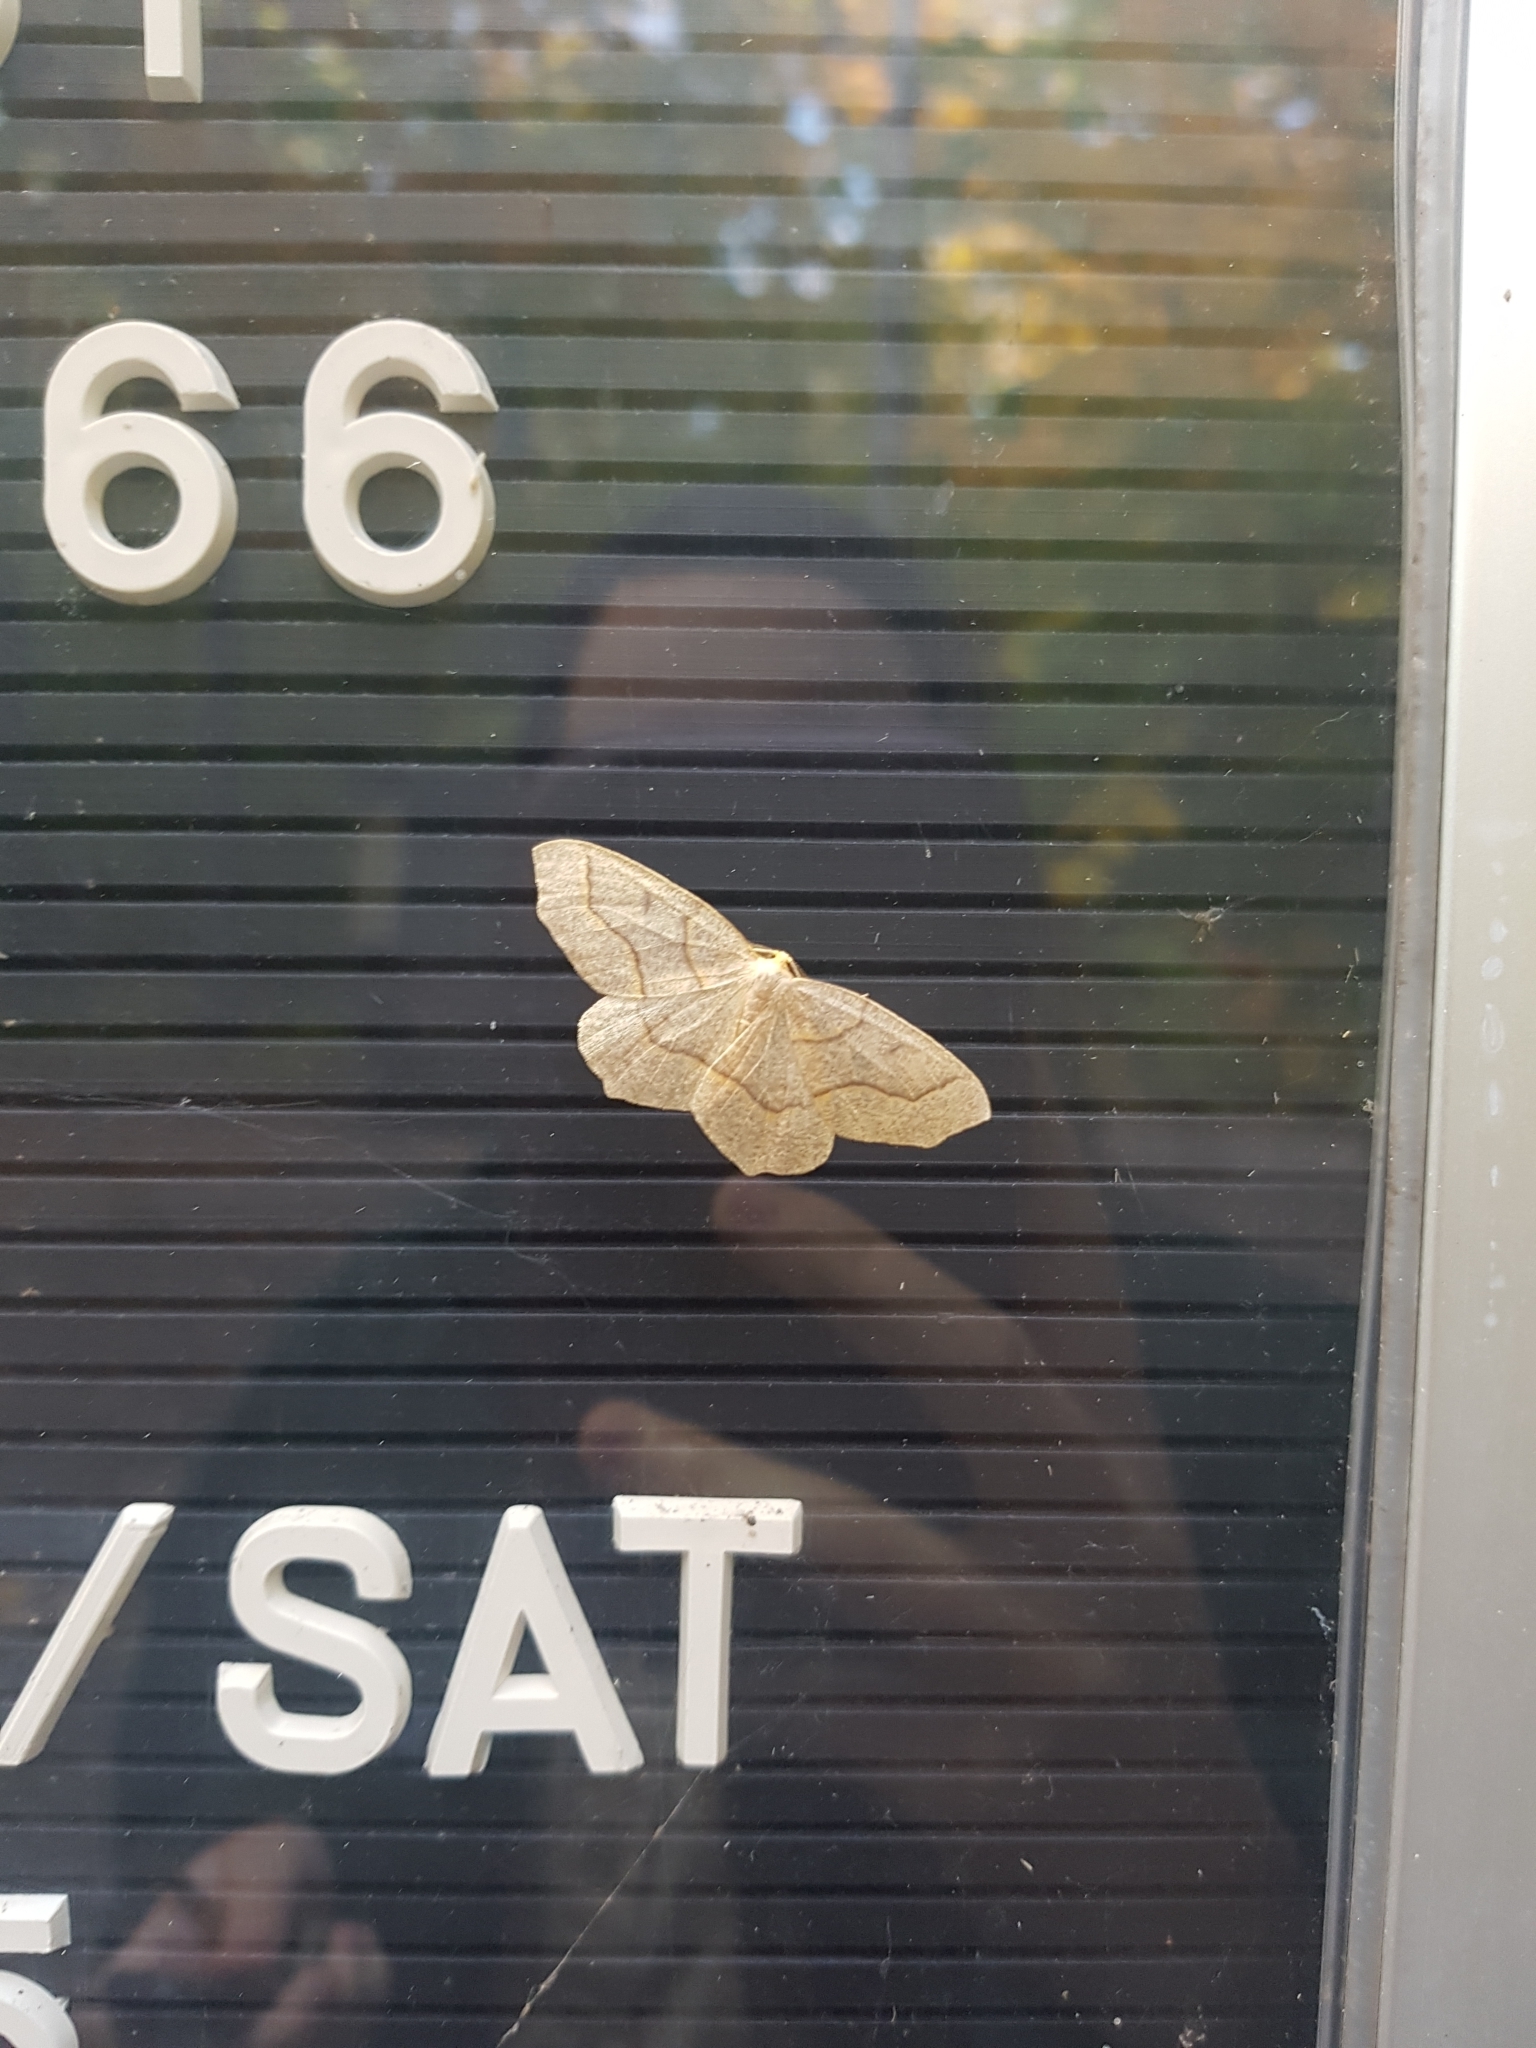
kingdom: Animalia
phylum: Arthropoda
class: Insecta
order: Lepidoptera
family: Geometridae
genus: Lambdina
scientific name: Lambdina fiscellaria
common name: Hemlock looper
